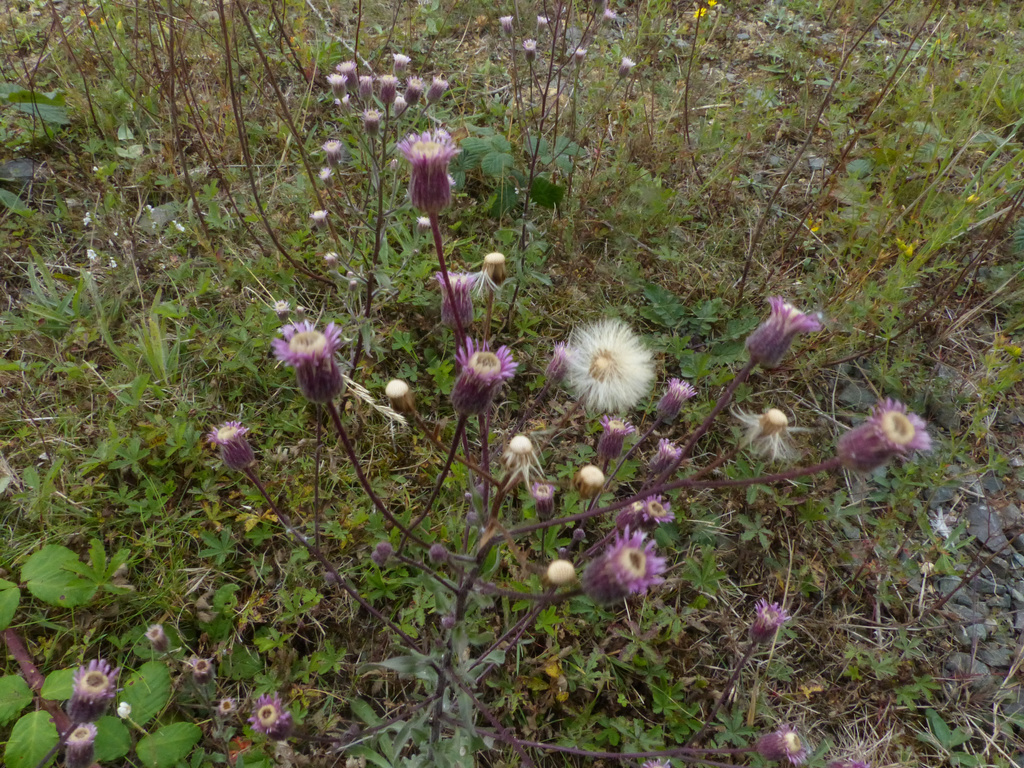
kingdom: Plantae
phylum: Tracheophyta
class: Magnoliopsida
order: Asterales
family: Asteraceae
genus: Erigeron
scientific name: Erigeron acris
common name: Blue fleabane
